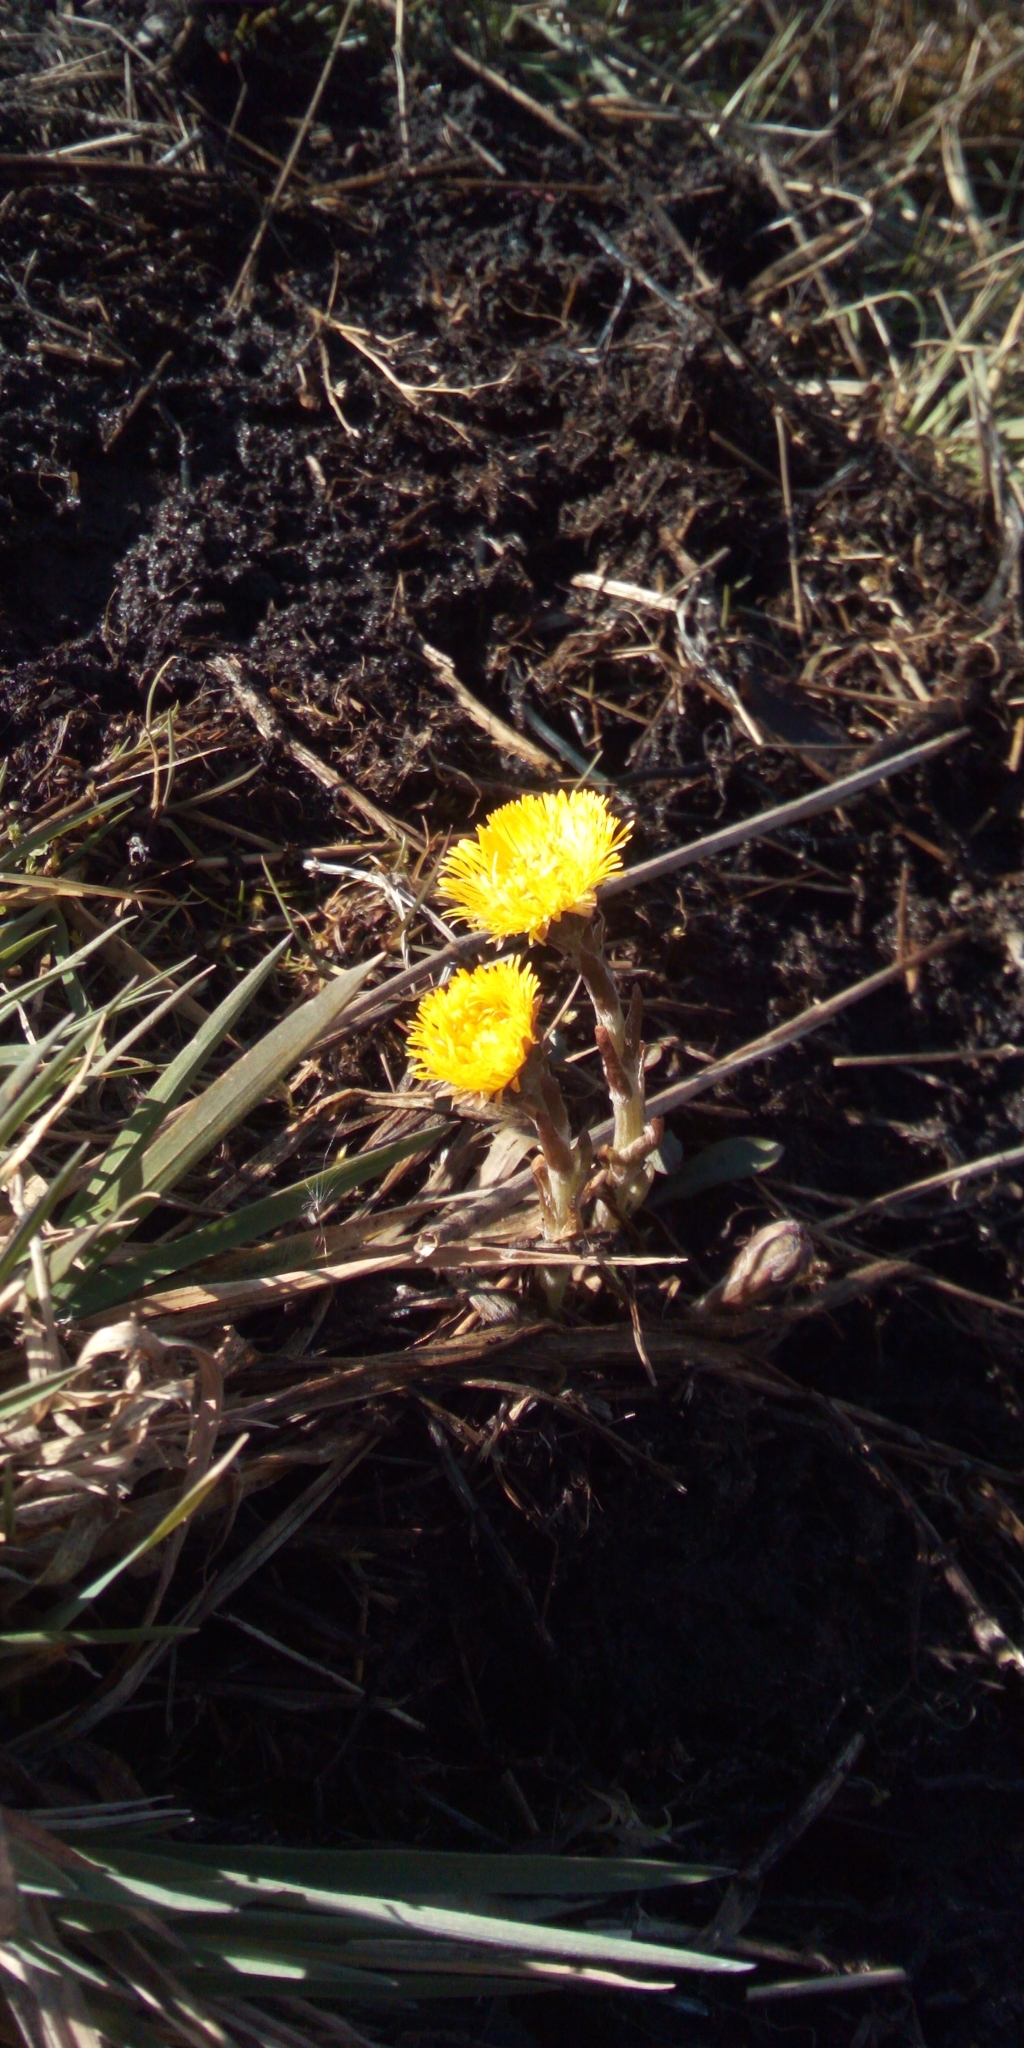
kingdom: Plantae
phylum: Tracheophyta
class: Magnoliopsida
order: Asterales
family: Asteraceae
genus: Tussilago
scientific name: Tussilago farfara
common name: Coltsfoot
